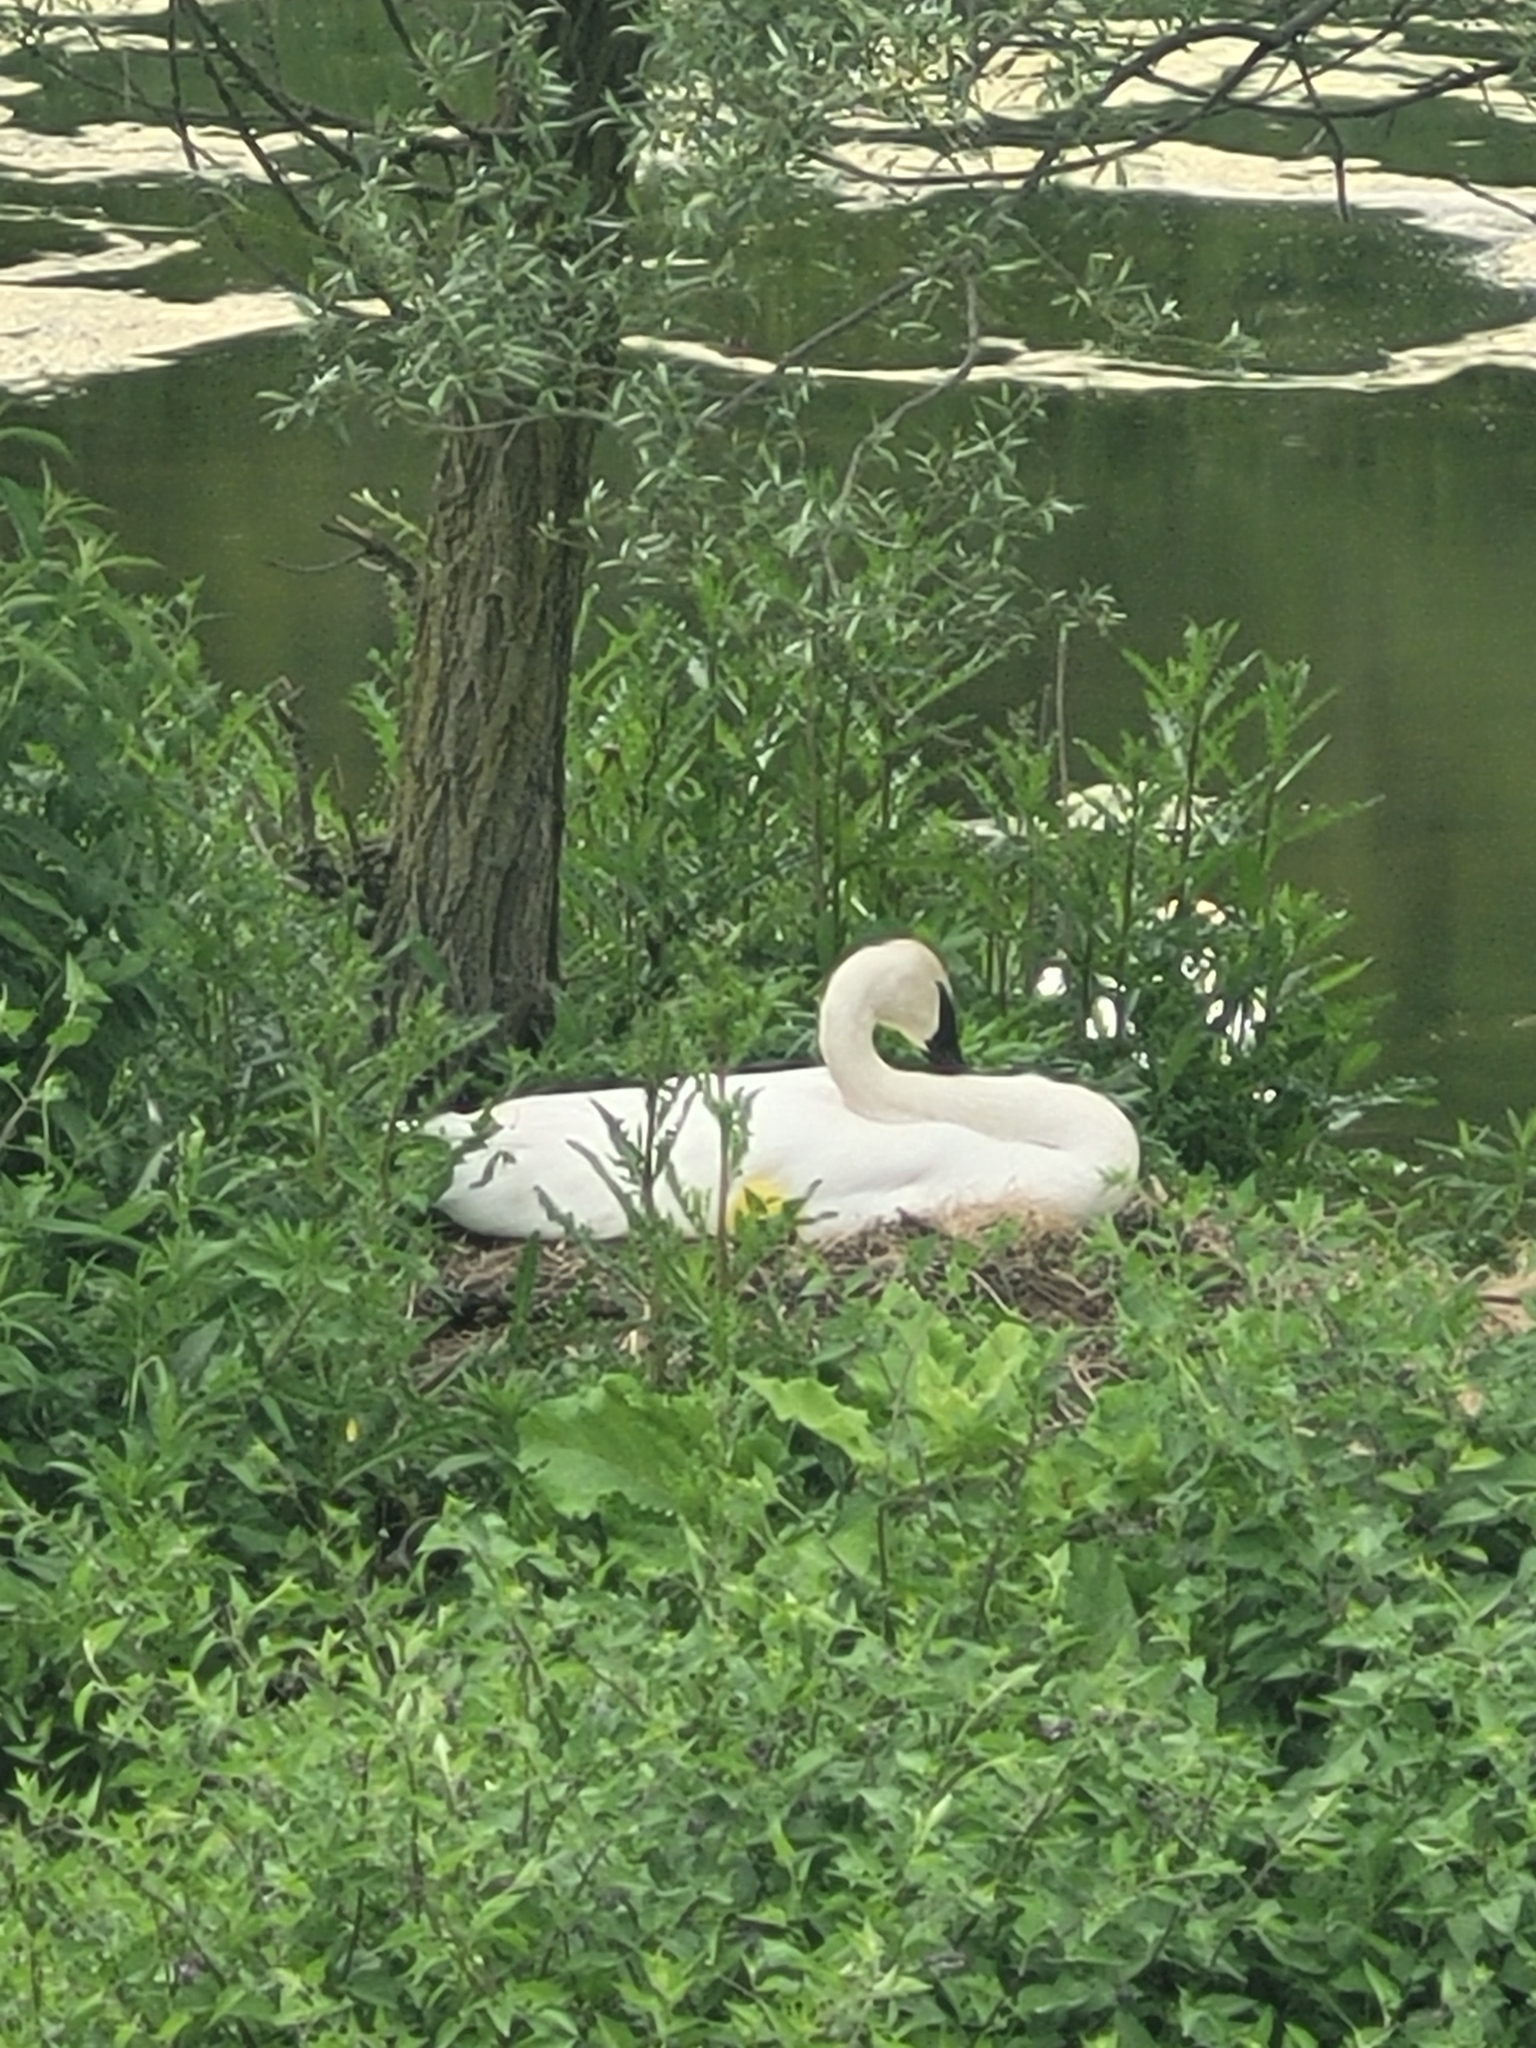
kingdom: Animalia
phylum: Chordata
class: Aves
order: Anseriformes
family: Anatidae
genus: Cygnus
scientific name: Cygnus buccinator
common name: Trumpeter swan
